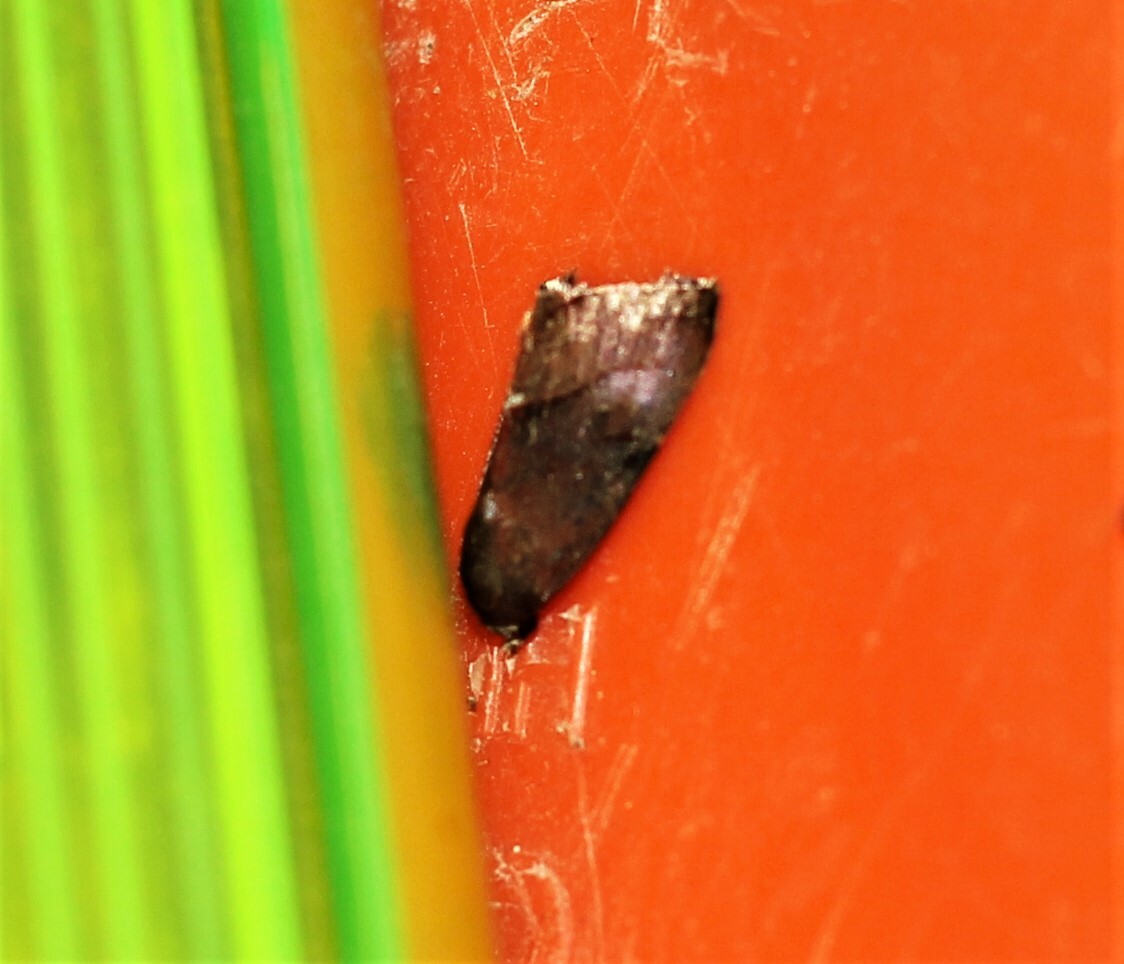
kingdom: Animalia
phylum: Arthropoda
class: Insecta
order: Lepidoptera
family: Noctuidae
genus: Galgula
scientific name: Galgula partita
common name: Wedgeling
